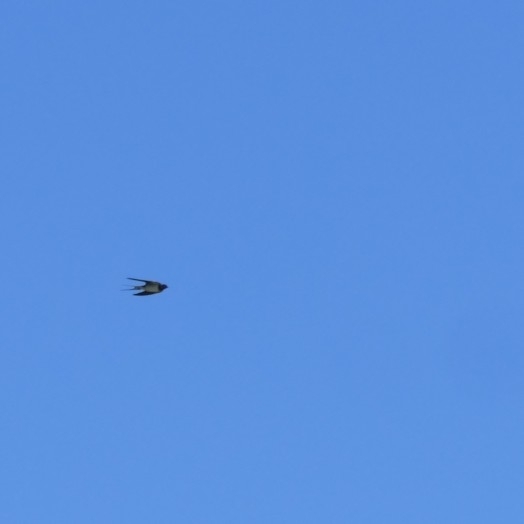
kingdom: Animalia
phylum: Chordata
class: Aves
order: Passeriformes
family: Hirundinidae
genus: Hirundo
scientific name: Hirundo rustica
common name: Barn swallow
